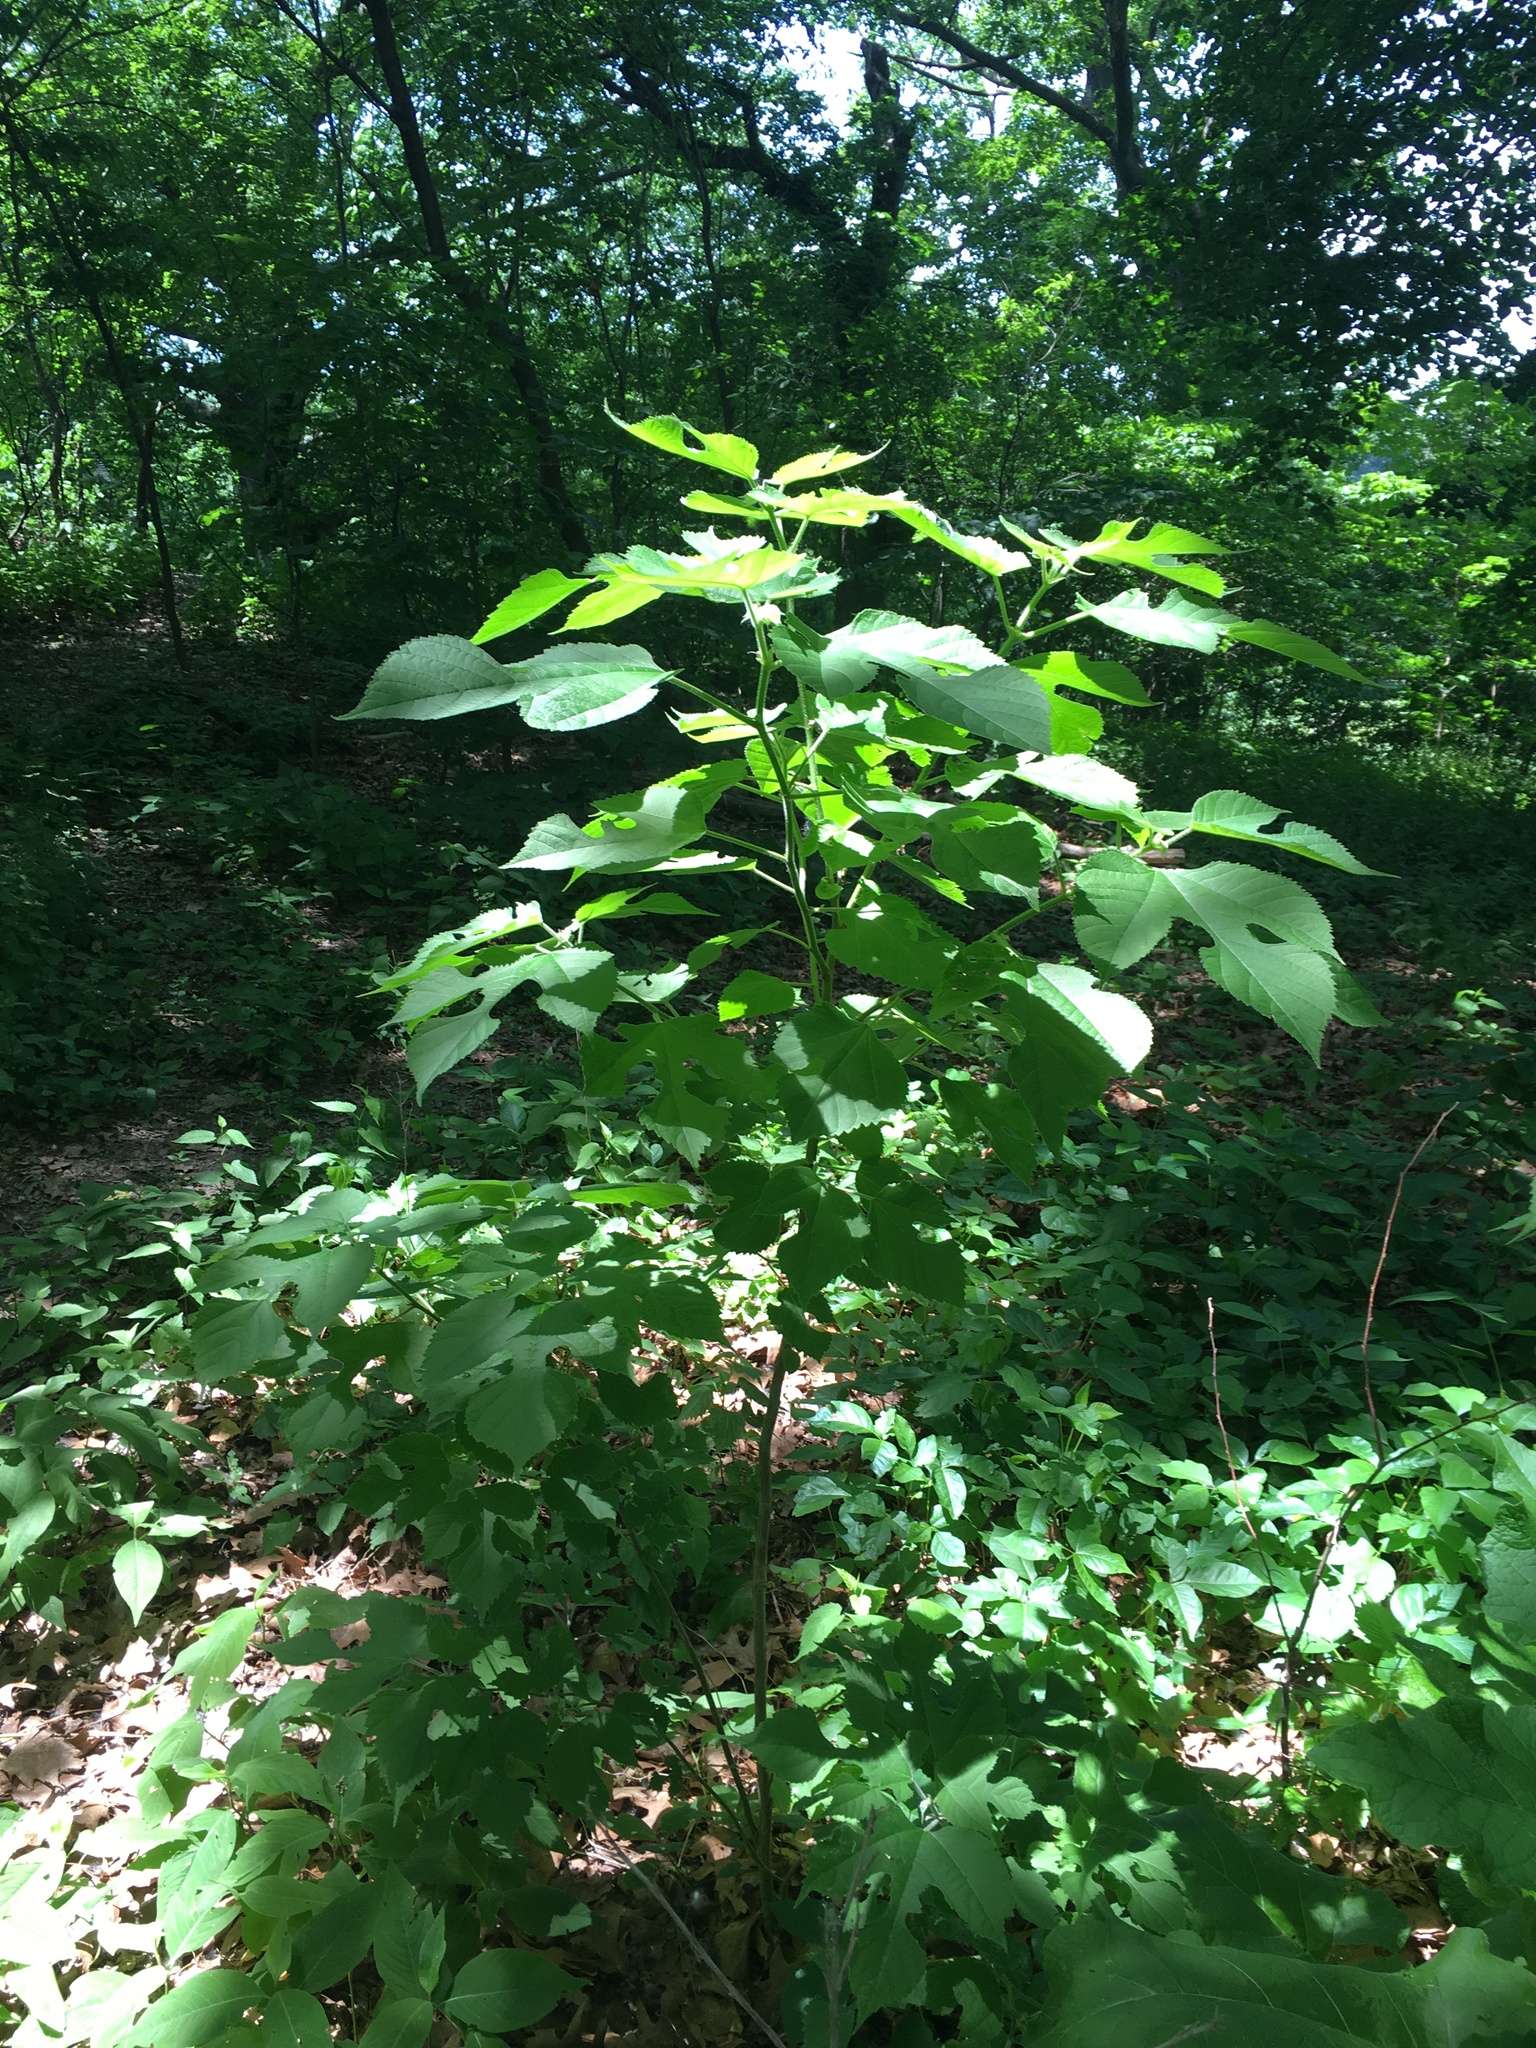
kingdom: Plantae
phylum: Tracheophyta
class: Magnoliopsida
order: Rosales
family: Moraceae
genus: Broussonetia
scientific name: Broussonetia papyrifera
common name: Paper mulberry
